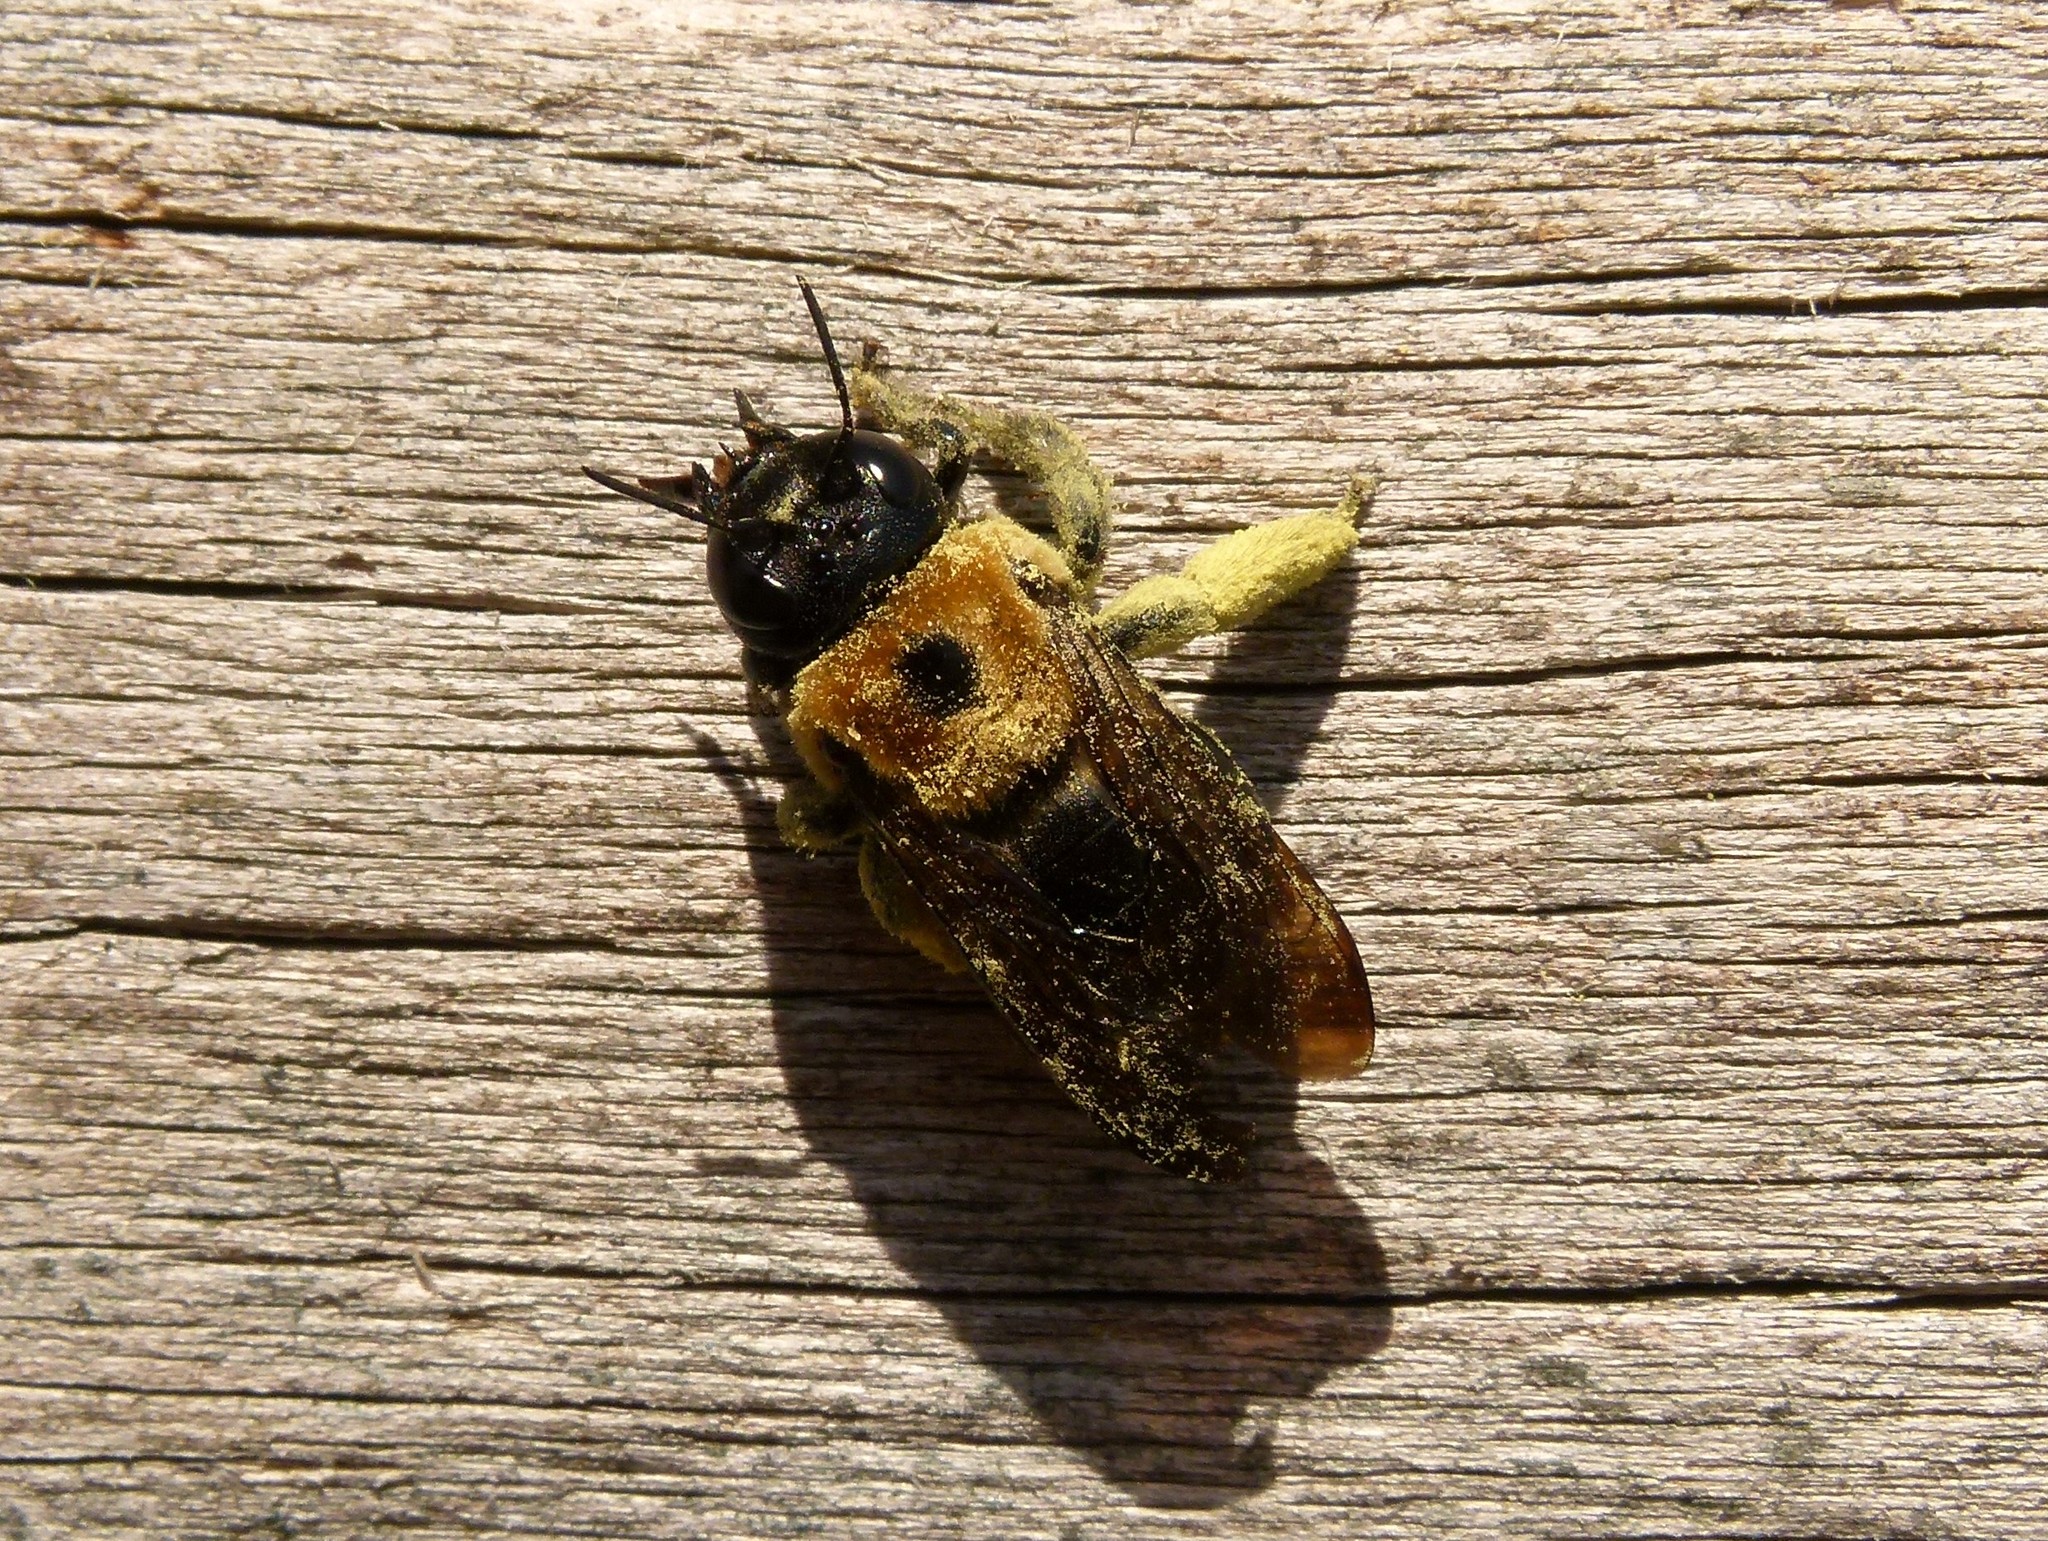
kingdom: Animalia
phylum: Arthropoda
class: Insecta
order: Hymenoptera
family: Apidae
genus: Xylocopa
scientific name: Xylocopa virginica
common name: Carpenter bee
